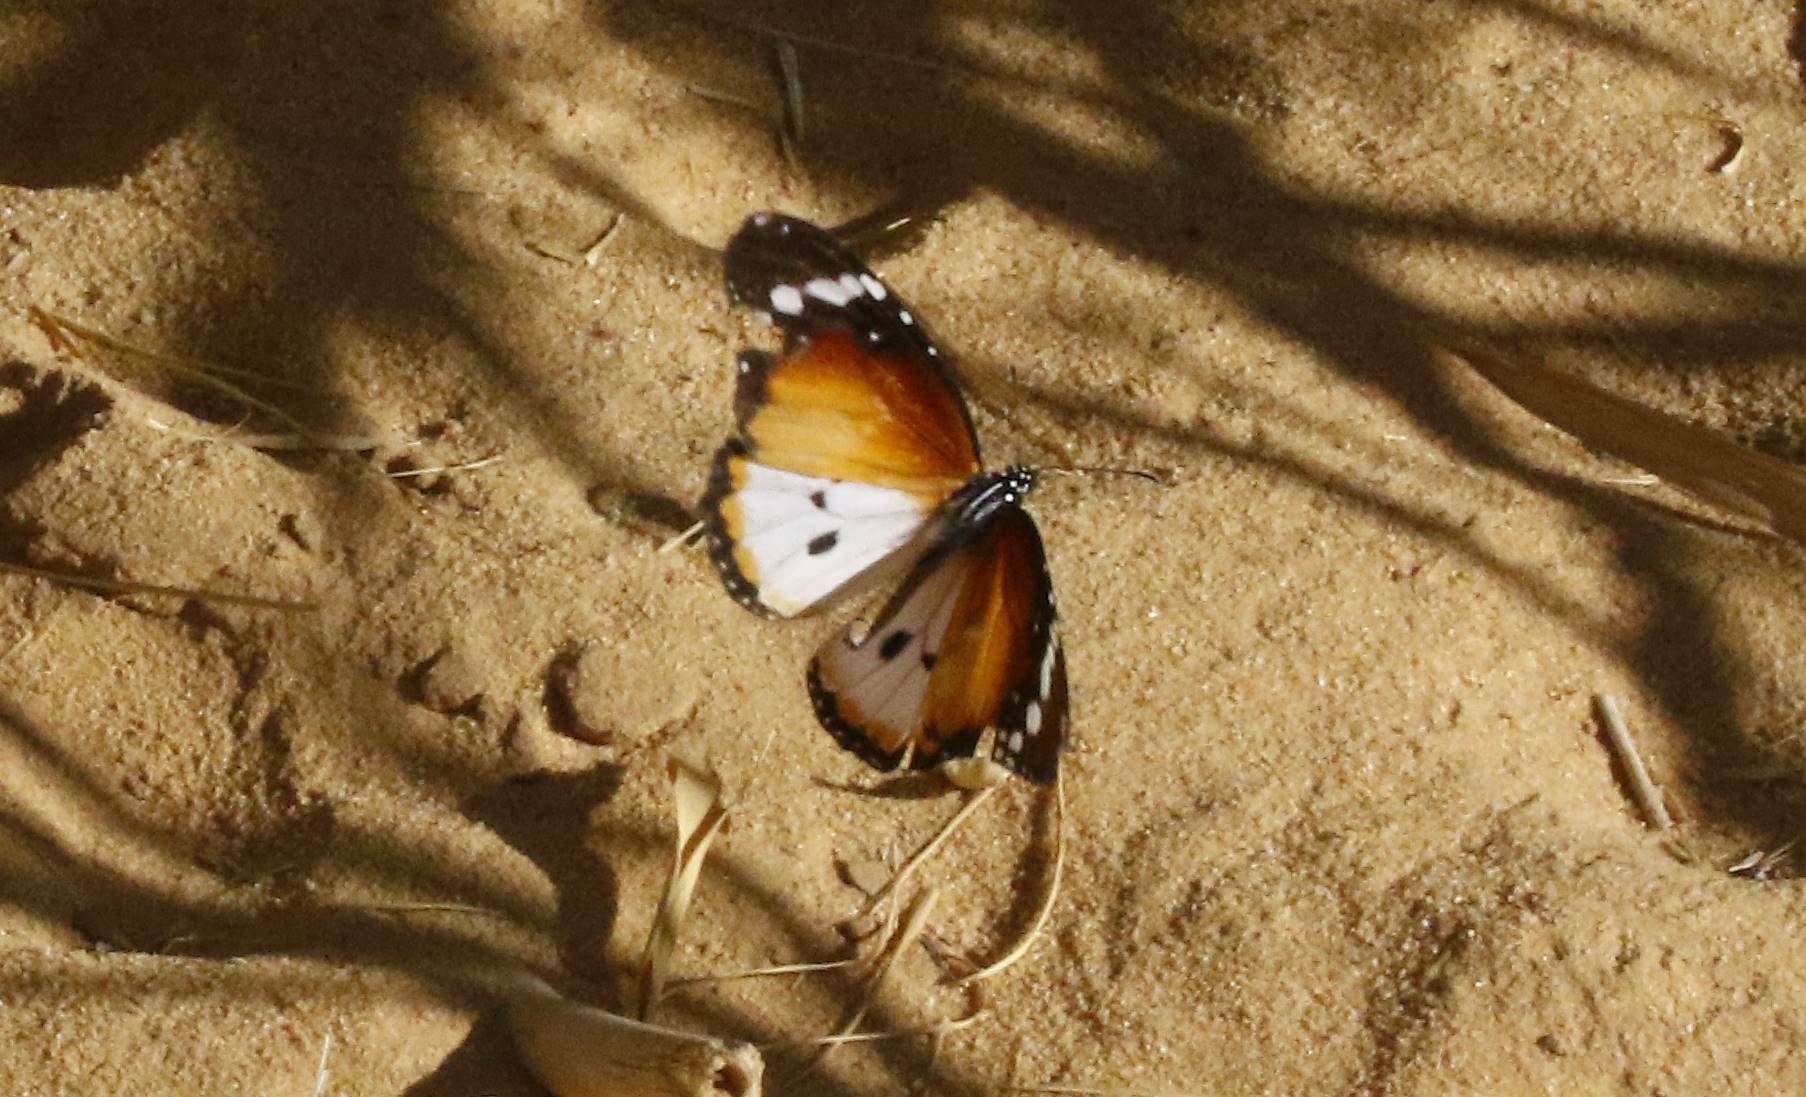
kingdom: Animalia
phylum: Arthropoda
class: Insecta
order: Lepidoptera
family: Nymphalidae
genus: Danaus
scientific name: Danaus chrysippus
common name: Plain tiger
